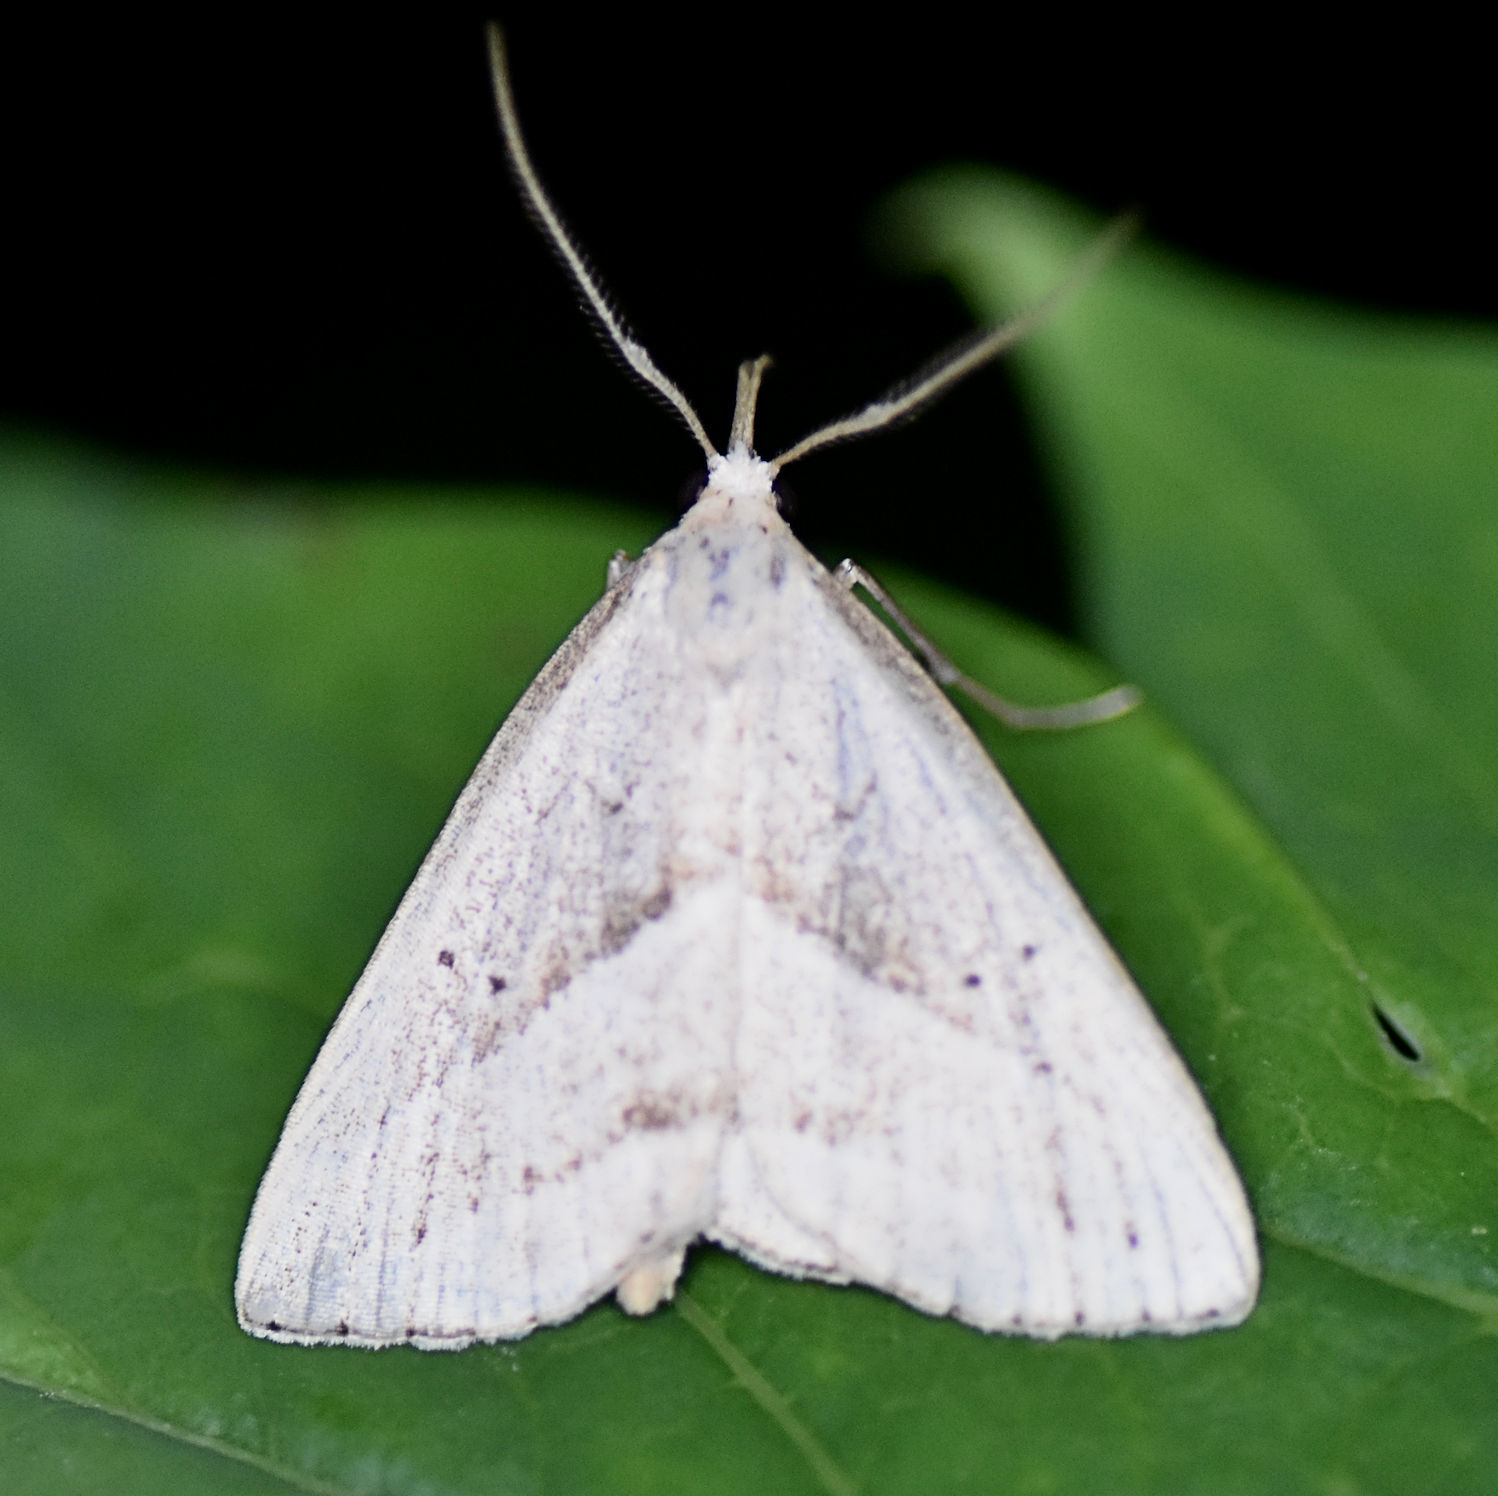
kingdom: Animalia
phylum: Arthropoda
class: Insecta
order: Lepidoptera
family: Erebidae
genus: Macrochilo
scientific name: Macrochilo absorptalis
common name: Slant-lined owlet
